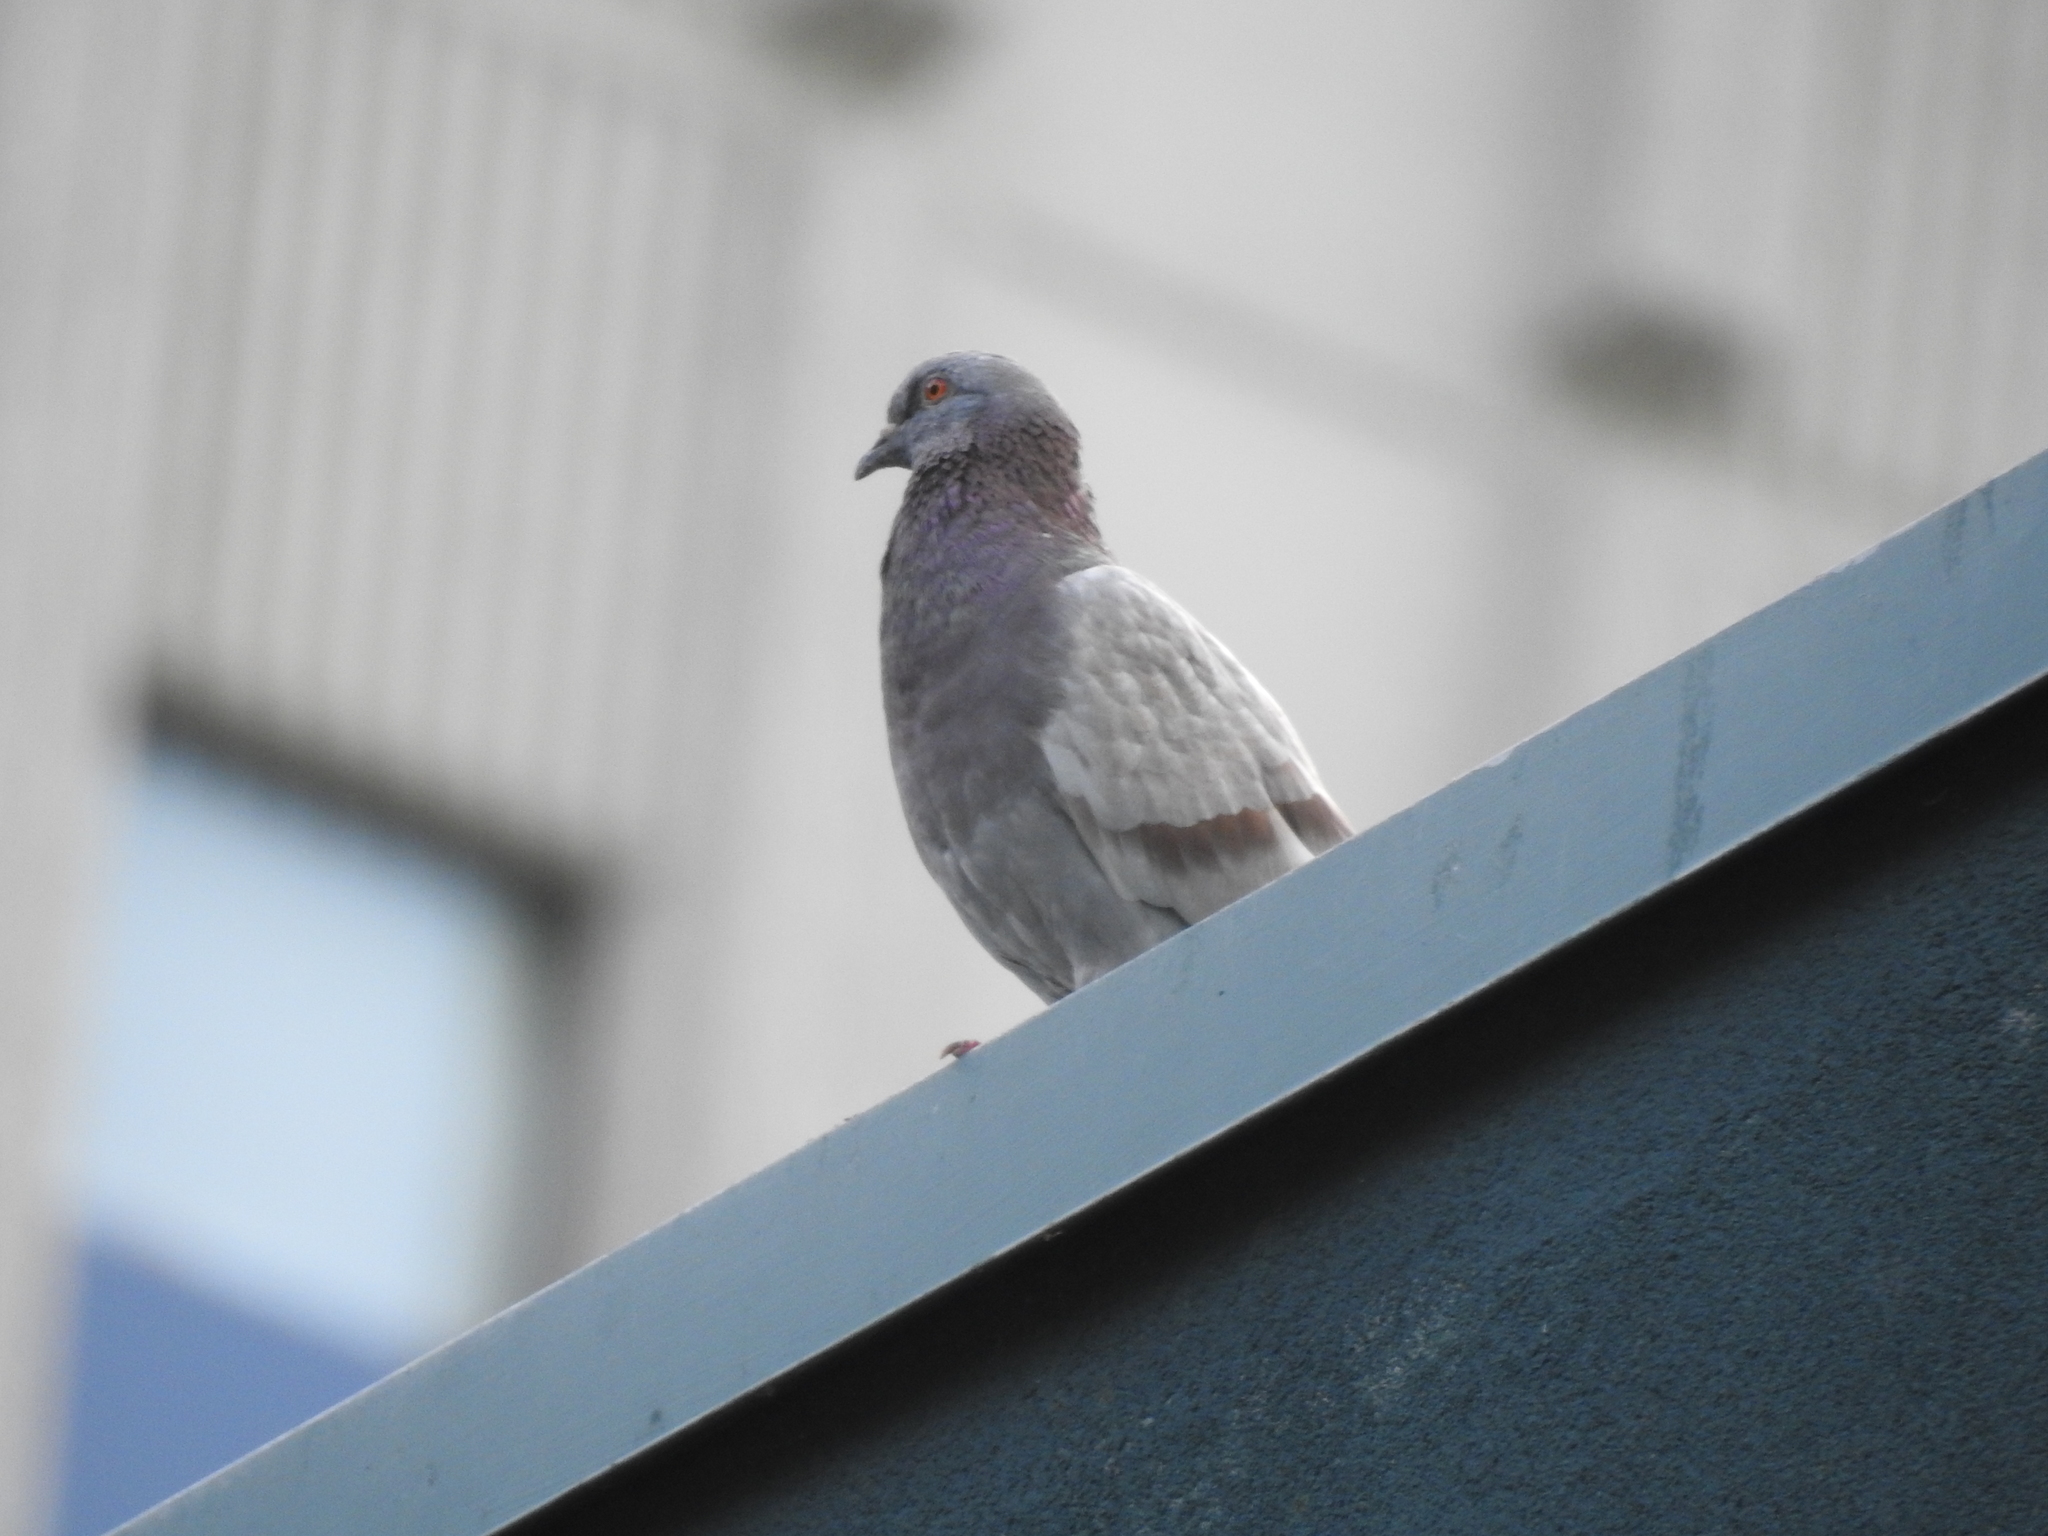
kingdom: Animalia
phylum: Chordata
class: Aves
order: Columbiformes
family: Columbidae
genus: Columba
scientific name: Columba livia
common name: Rock pigeon
